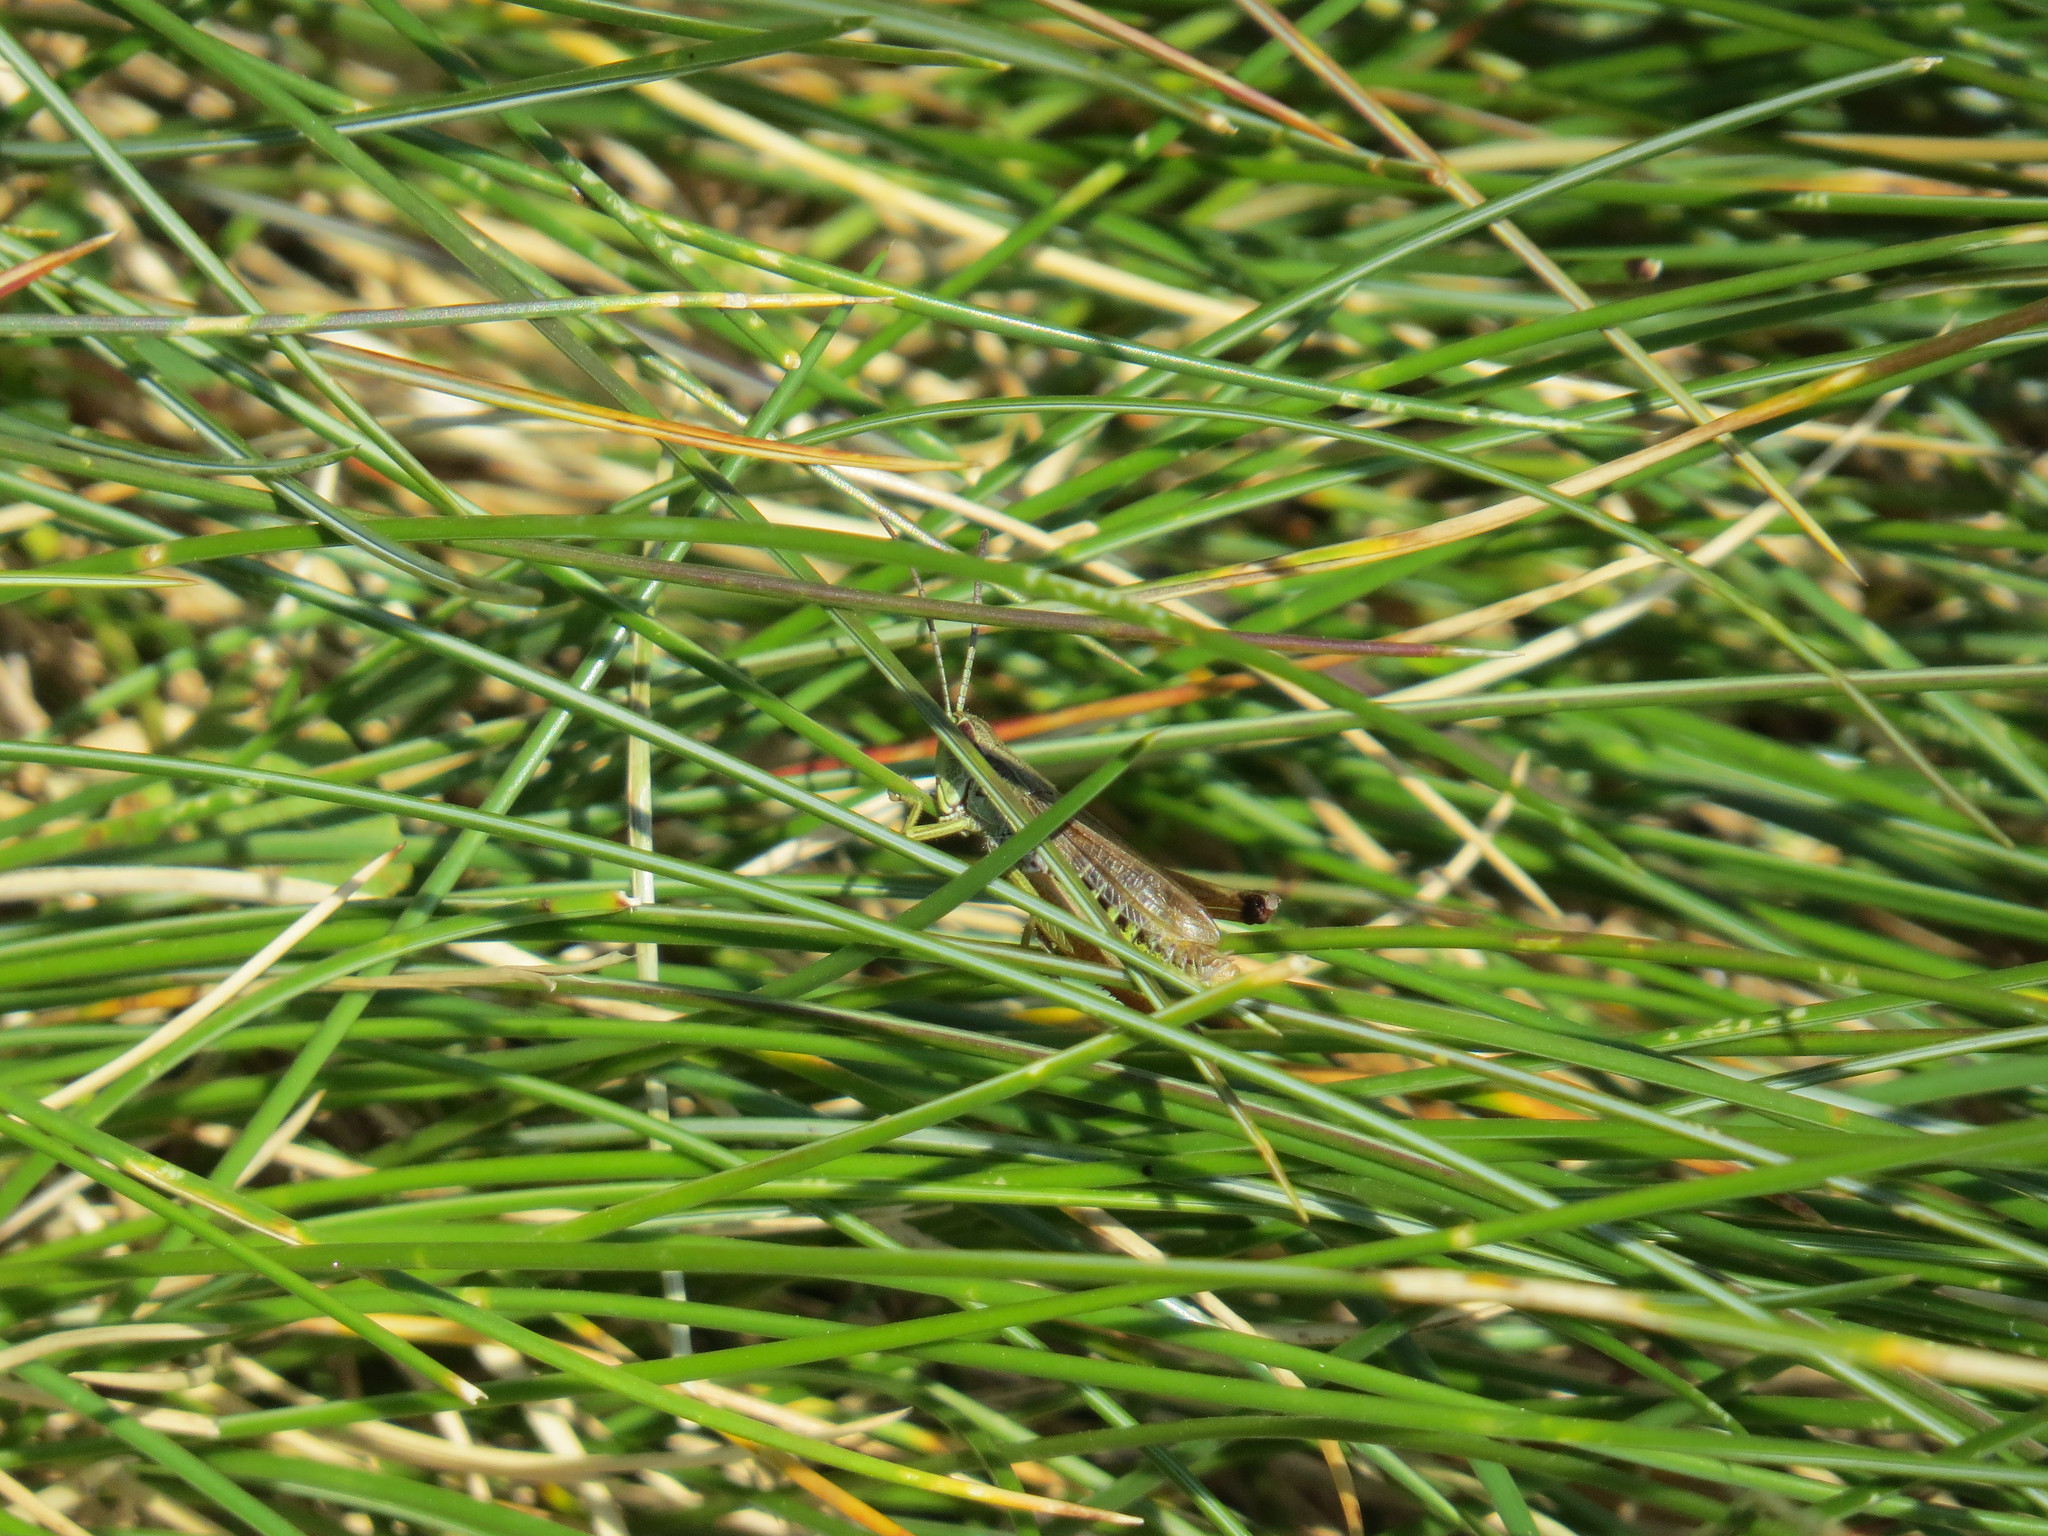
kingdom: Animalia
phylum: Arthropoda
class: Insecta
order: Orthoptera
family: Acrididae
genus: Pseudochorthippus
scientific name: Pseudochorthippus parallelus
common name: Meadow grasshopper
